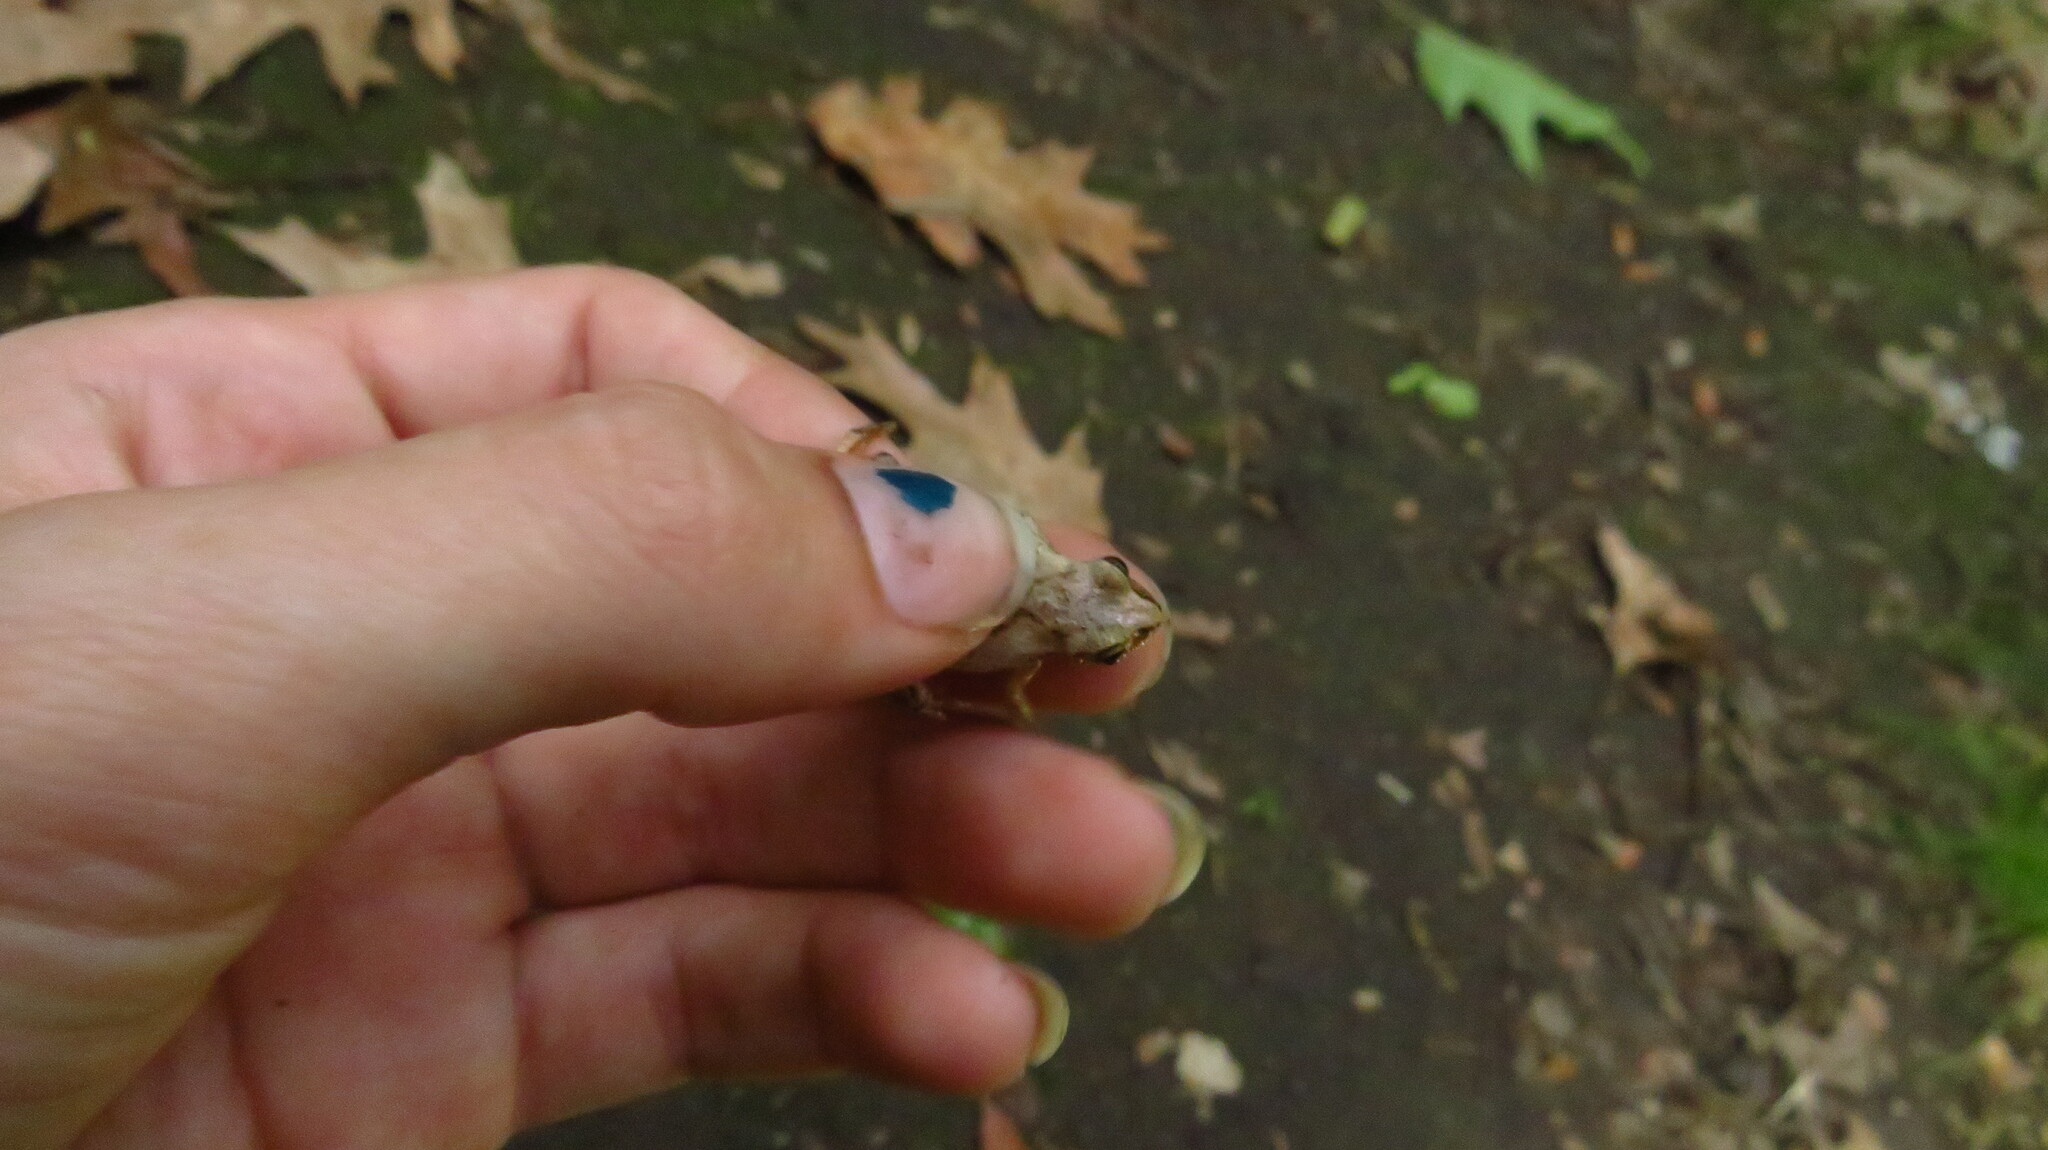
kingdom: Animalia
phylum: Chordata
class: Amphibia
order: Anura
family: Hylidae
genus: Pseudacris
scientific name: Pseudacris crucifer
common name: Spring peeper
